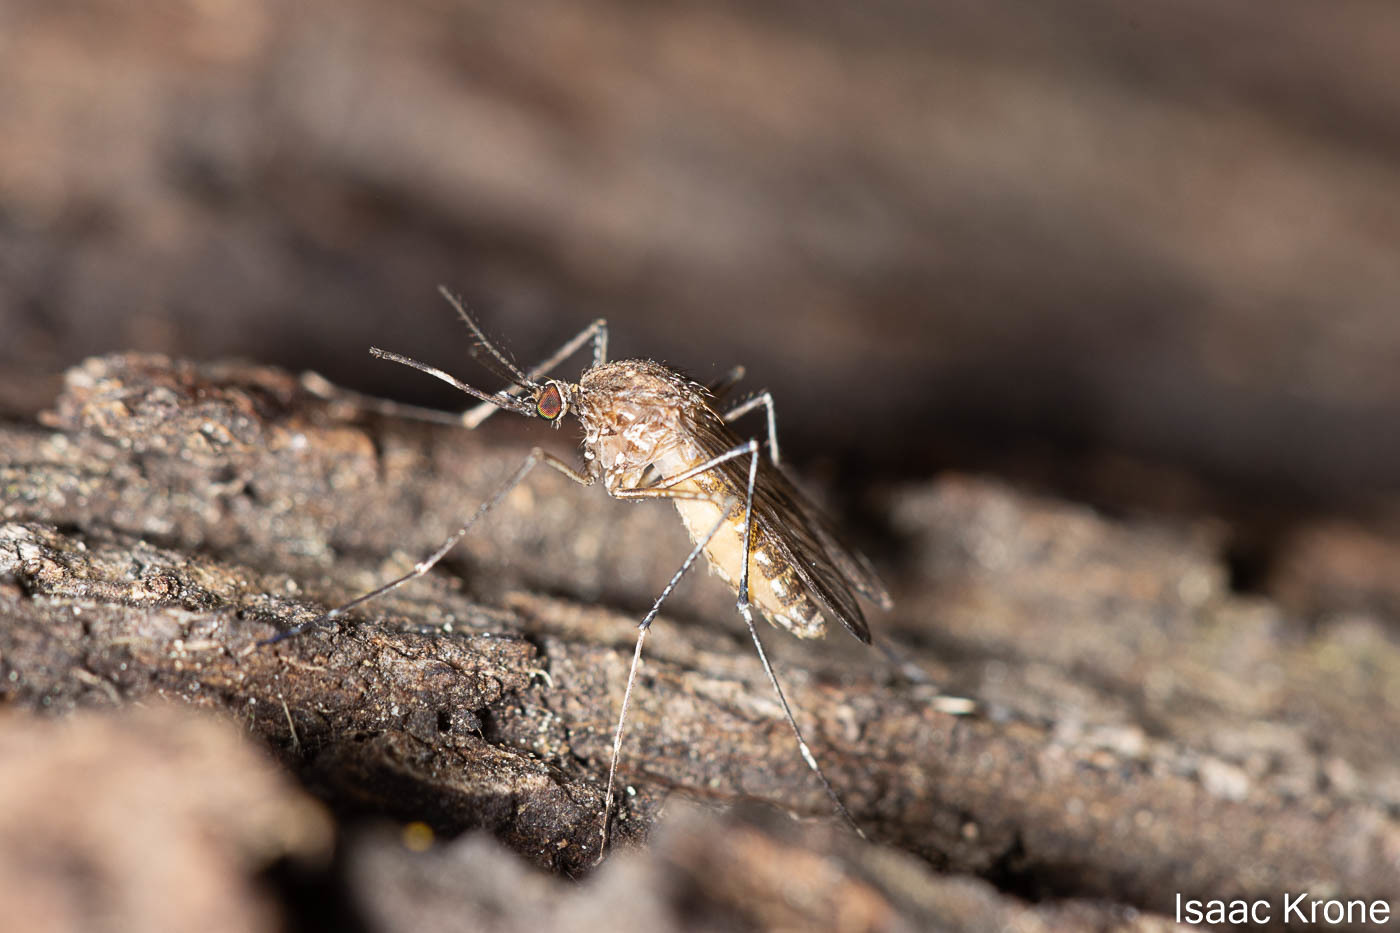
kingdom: Animalia
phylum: Arthropoda
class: Insecta
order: Diptera
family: Culicidae
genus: Culex
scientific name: Culex tarsalis
